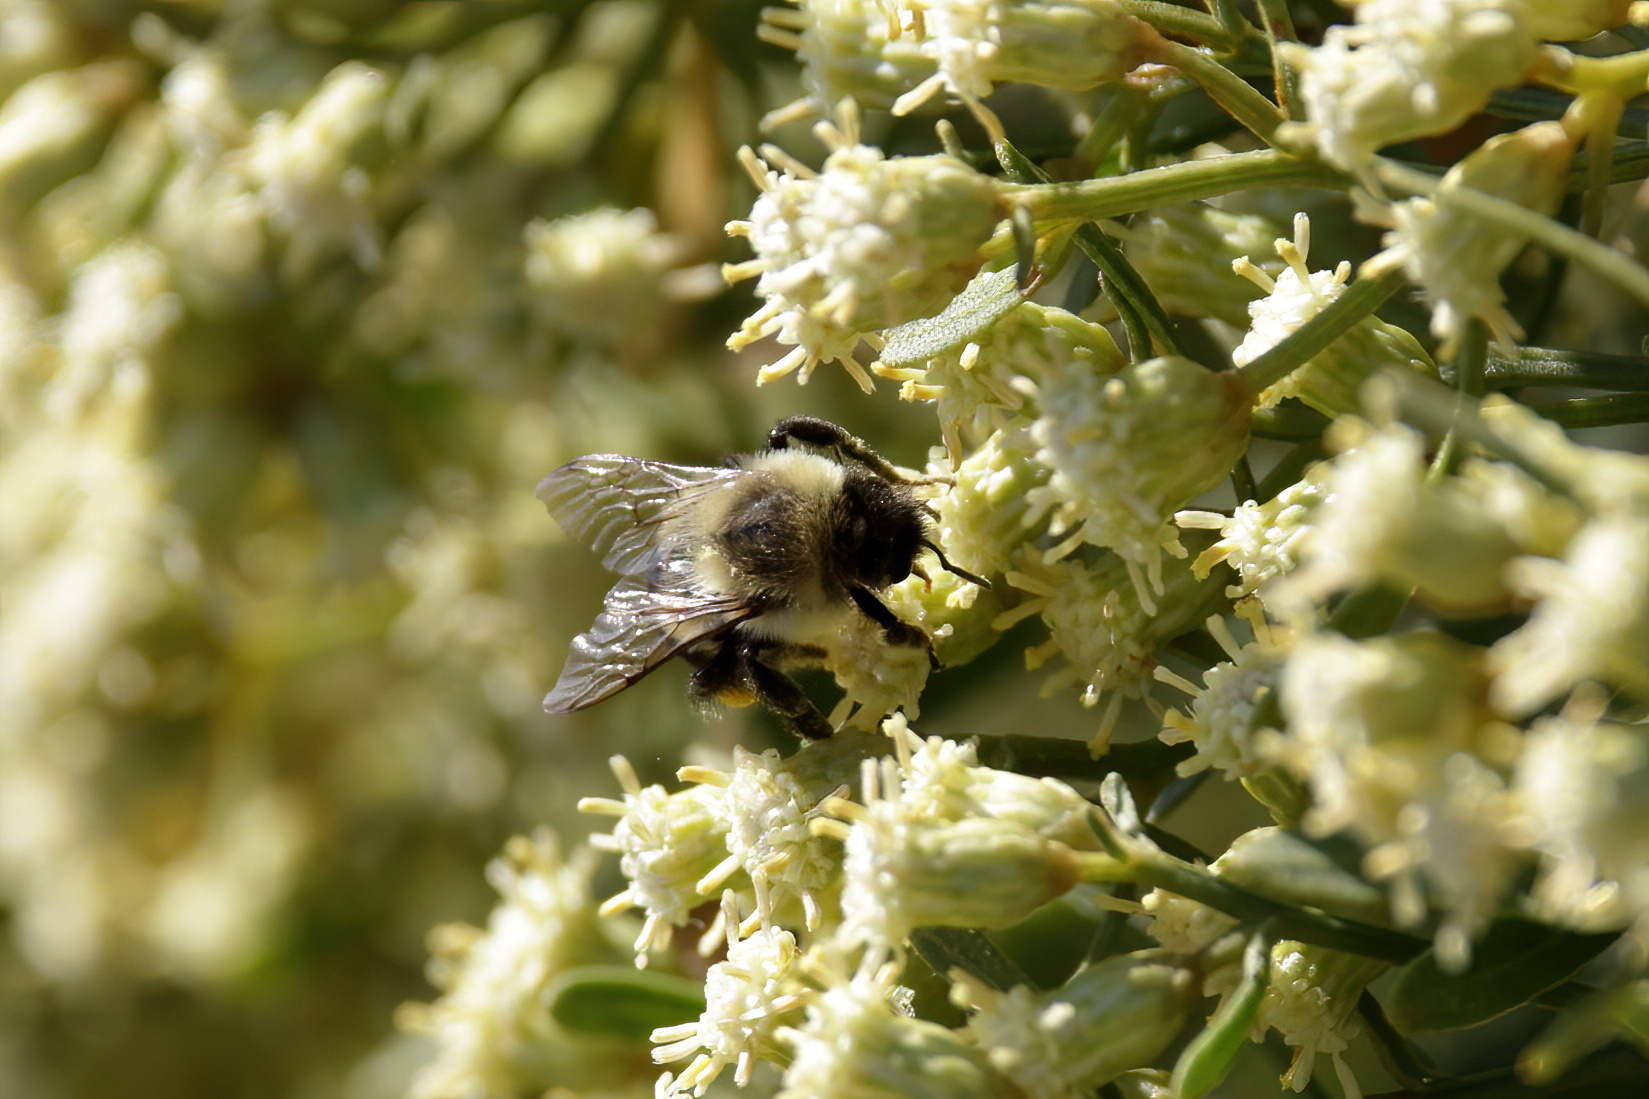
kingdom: Animalia
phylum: Arthropoda
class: Insecta
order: Hymenoptera
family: Apidae
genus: Bombus
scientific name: Bombus impatiens
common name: Common eastern bumble bee
